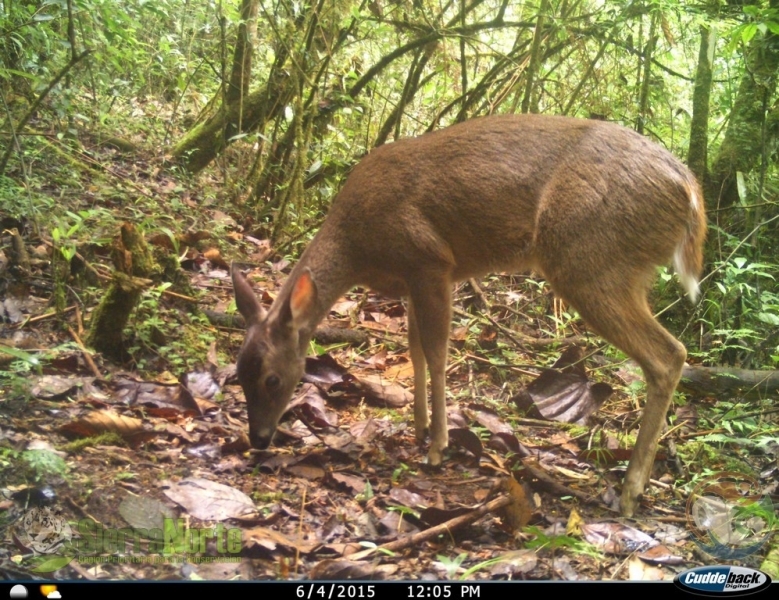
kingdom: Animalia
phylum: Chordata
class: Mammalia
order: Artiodactyla
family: Cervidae
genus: Odocoileus
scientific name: Odocoileus virginianus
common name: White-tailed deer
